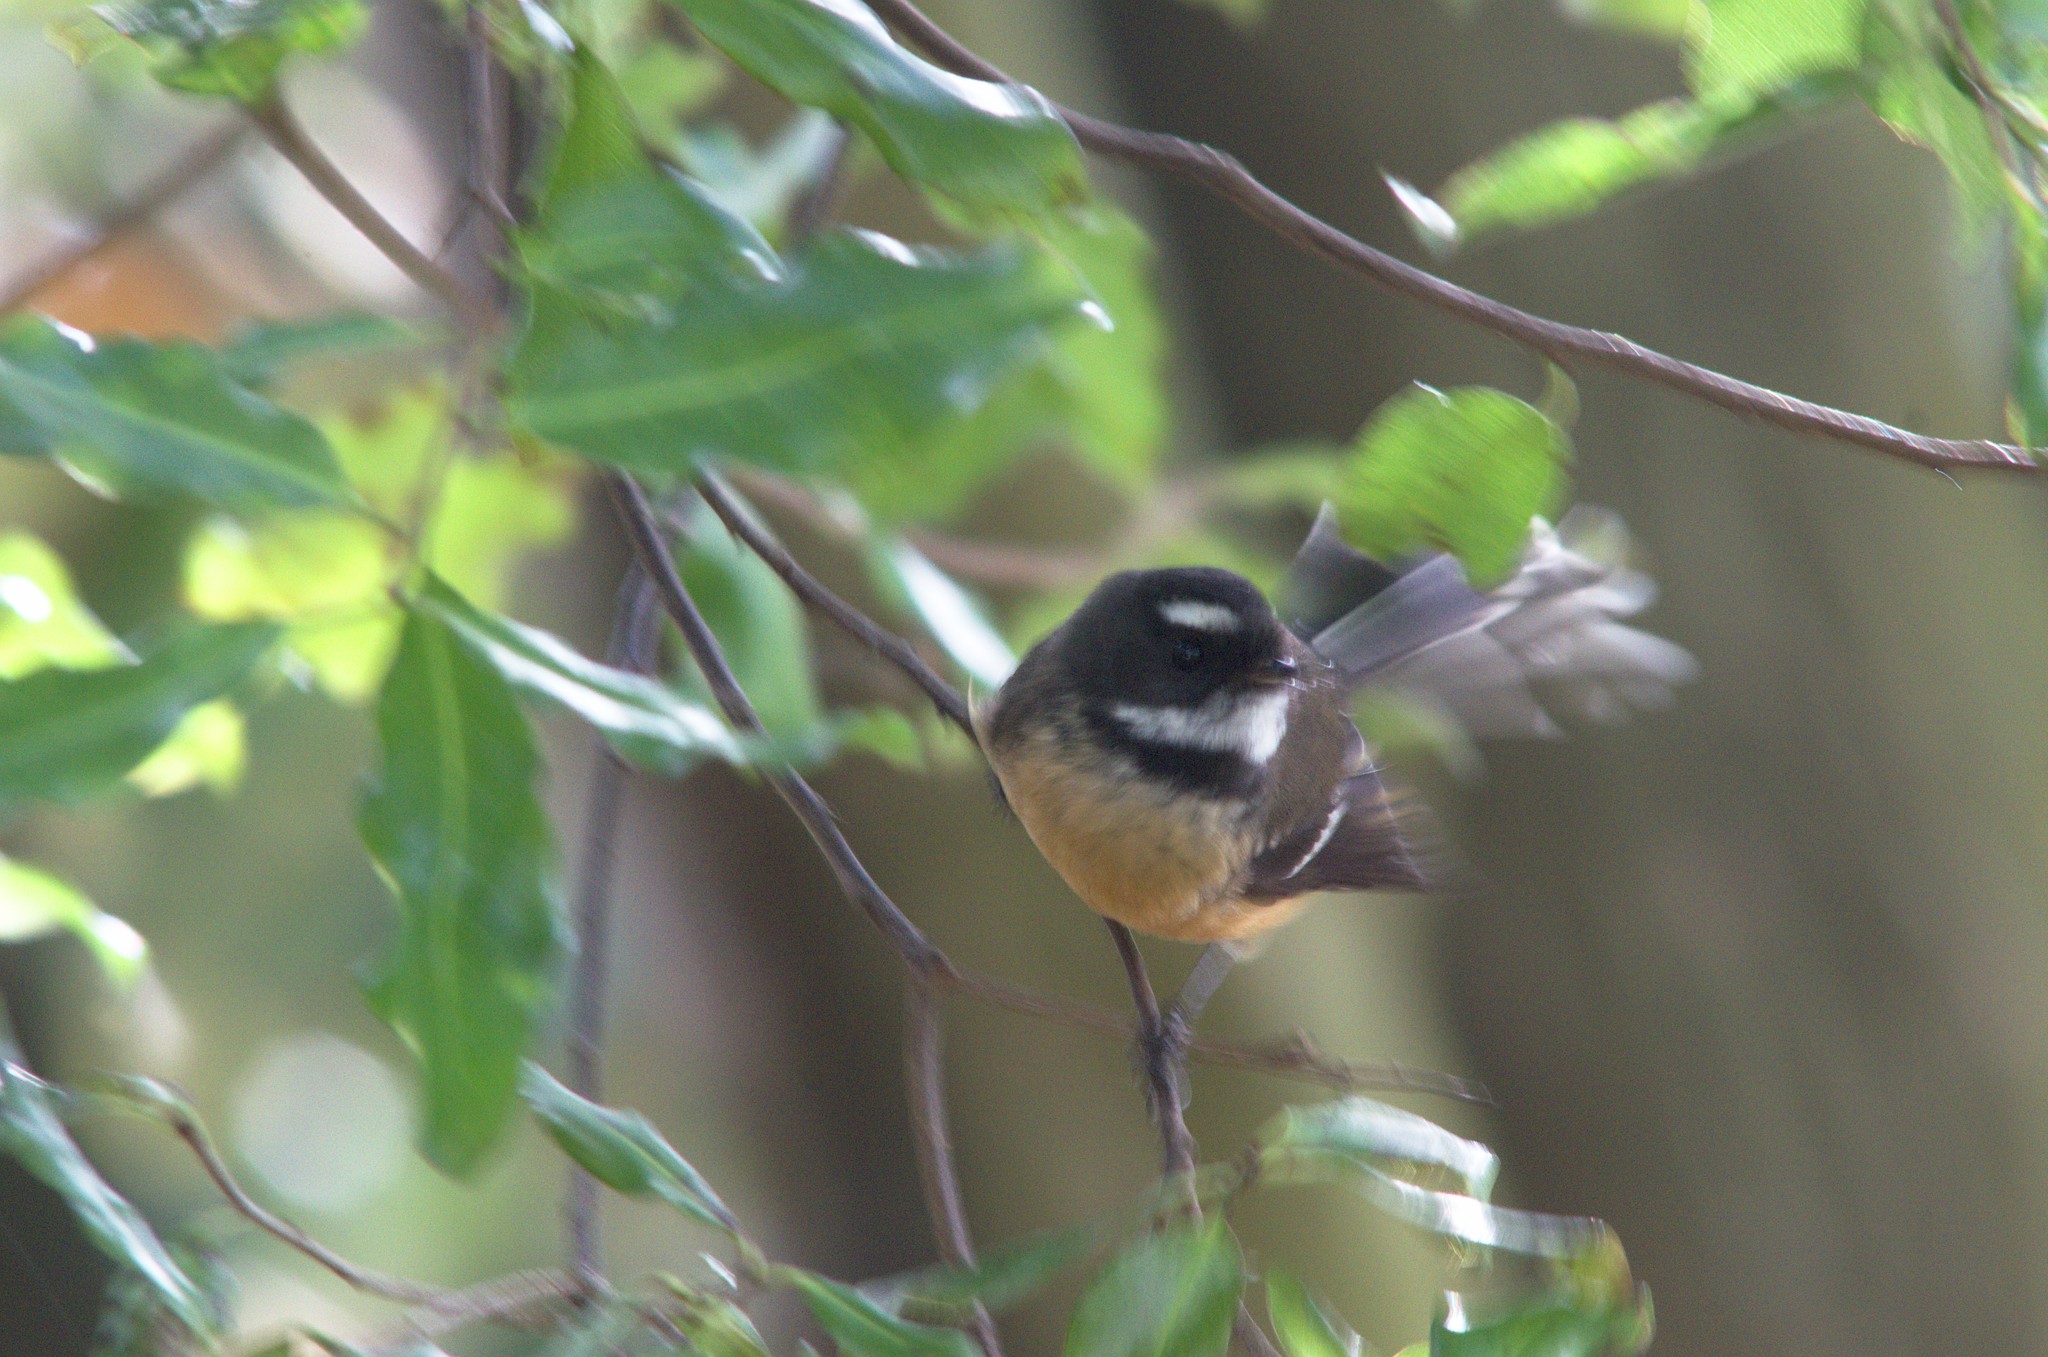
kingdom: Animalia
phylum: Chordata
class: Aves
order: Passeriformes
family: Rhipiduridae
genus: Rhipidura
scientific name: Rhipidura fuliginosa
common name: New zealand fantail
